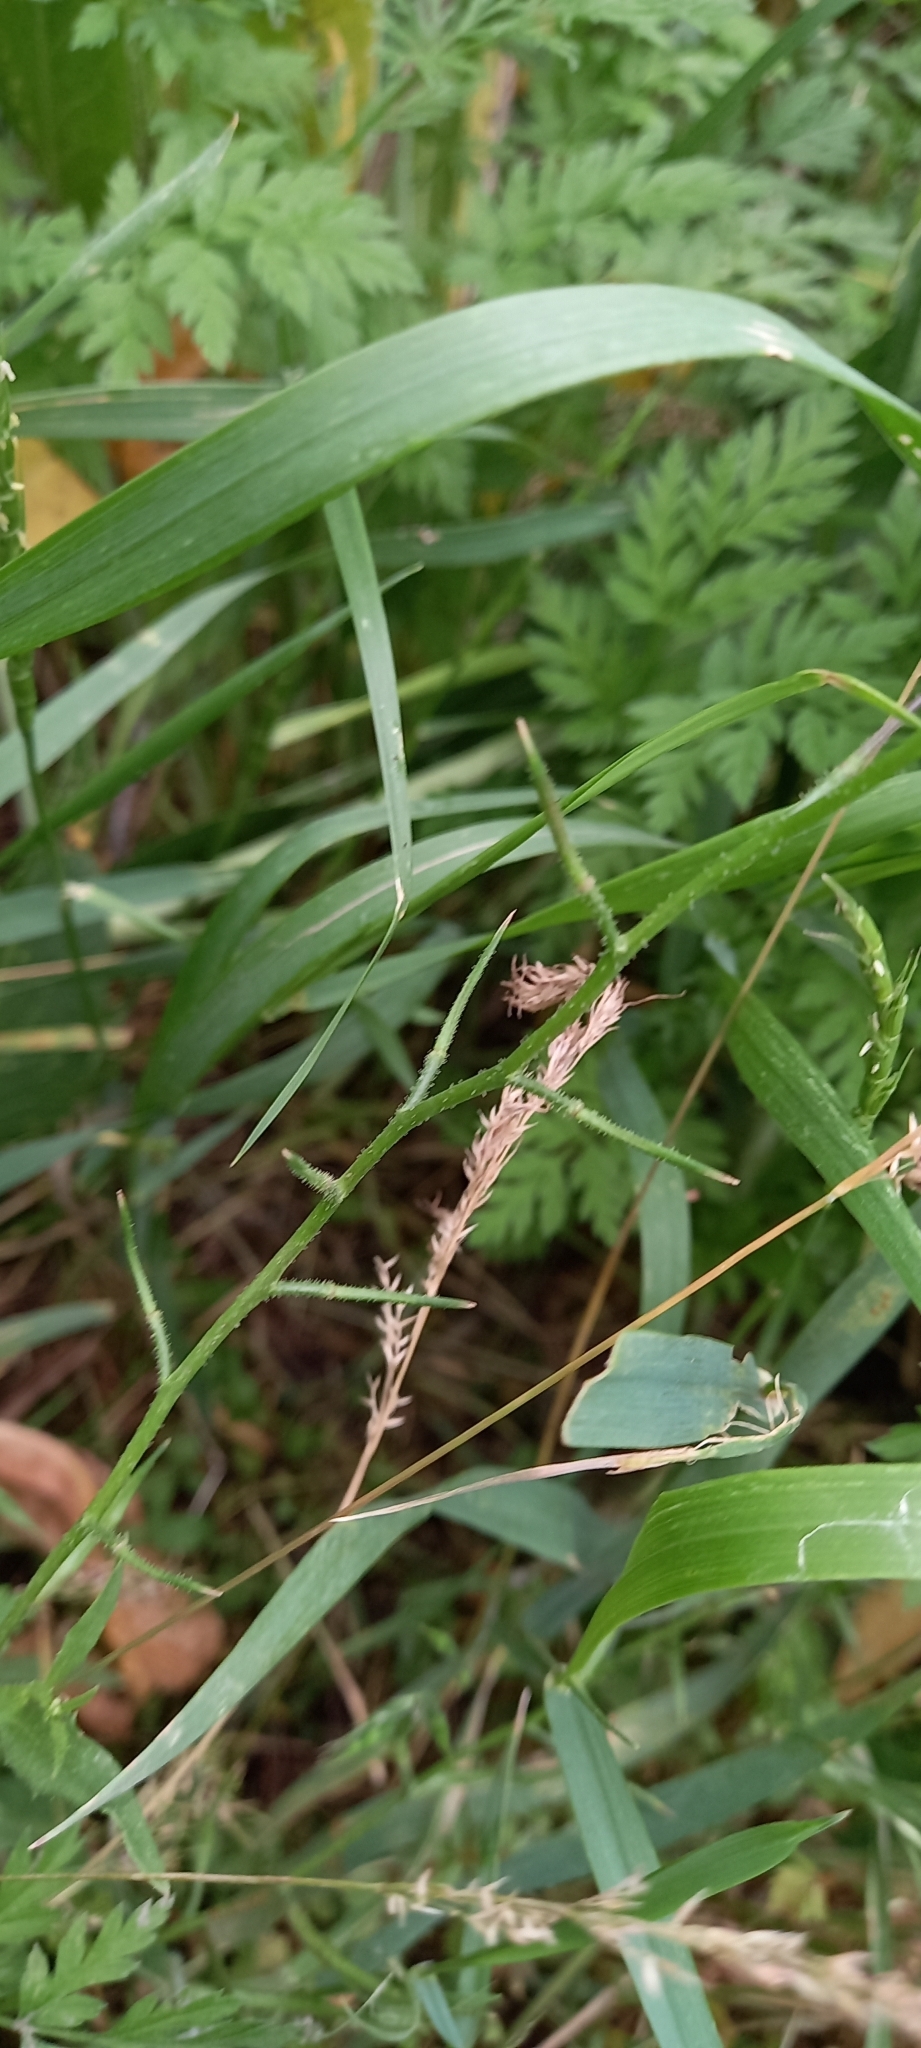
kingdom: Plantae
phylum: Tracheophyta
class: Magnoliopsida
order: Brassicales
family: Brassicaceae
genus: Chorispora
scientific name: Chorispora tenella
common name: Crossflower
